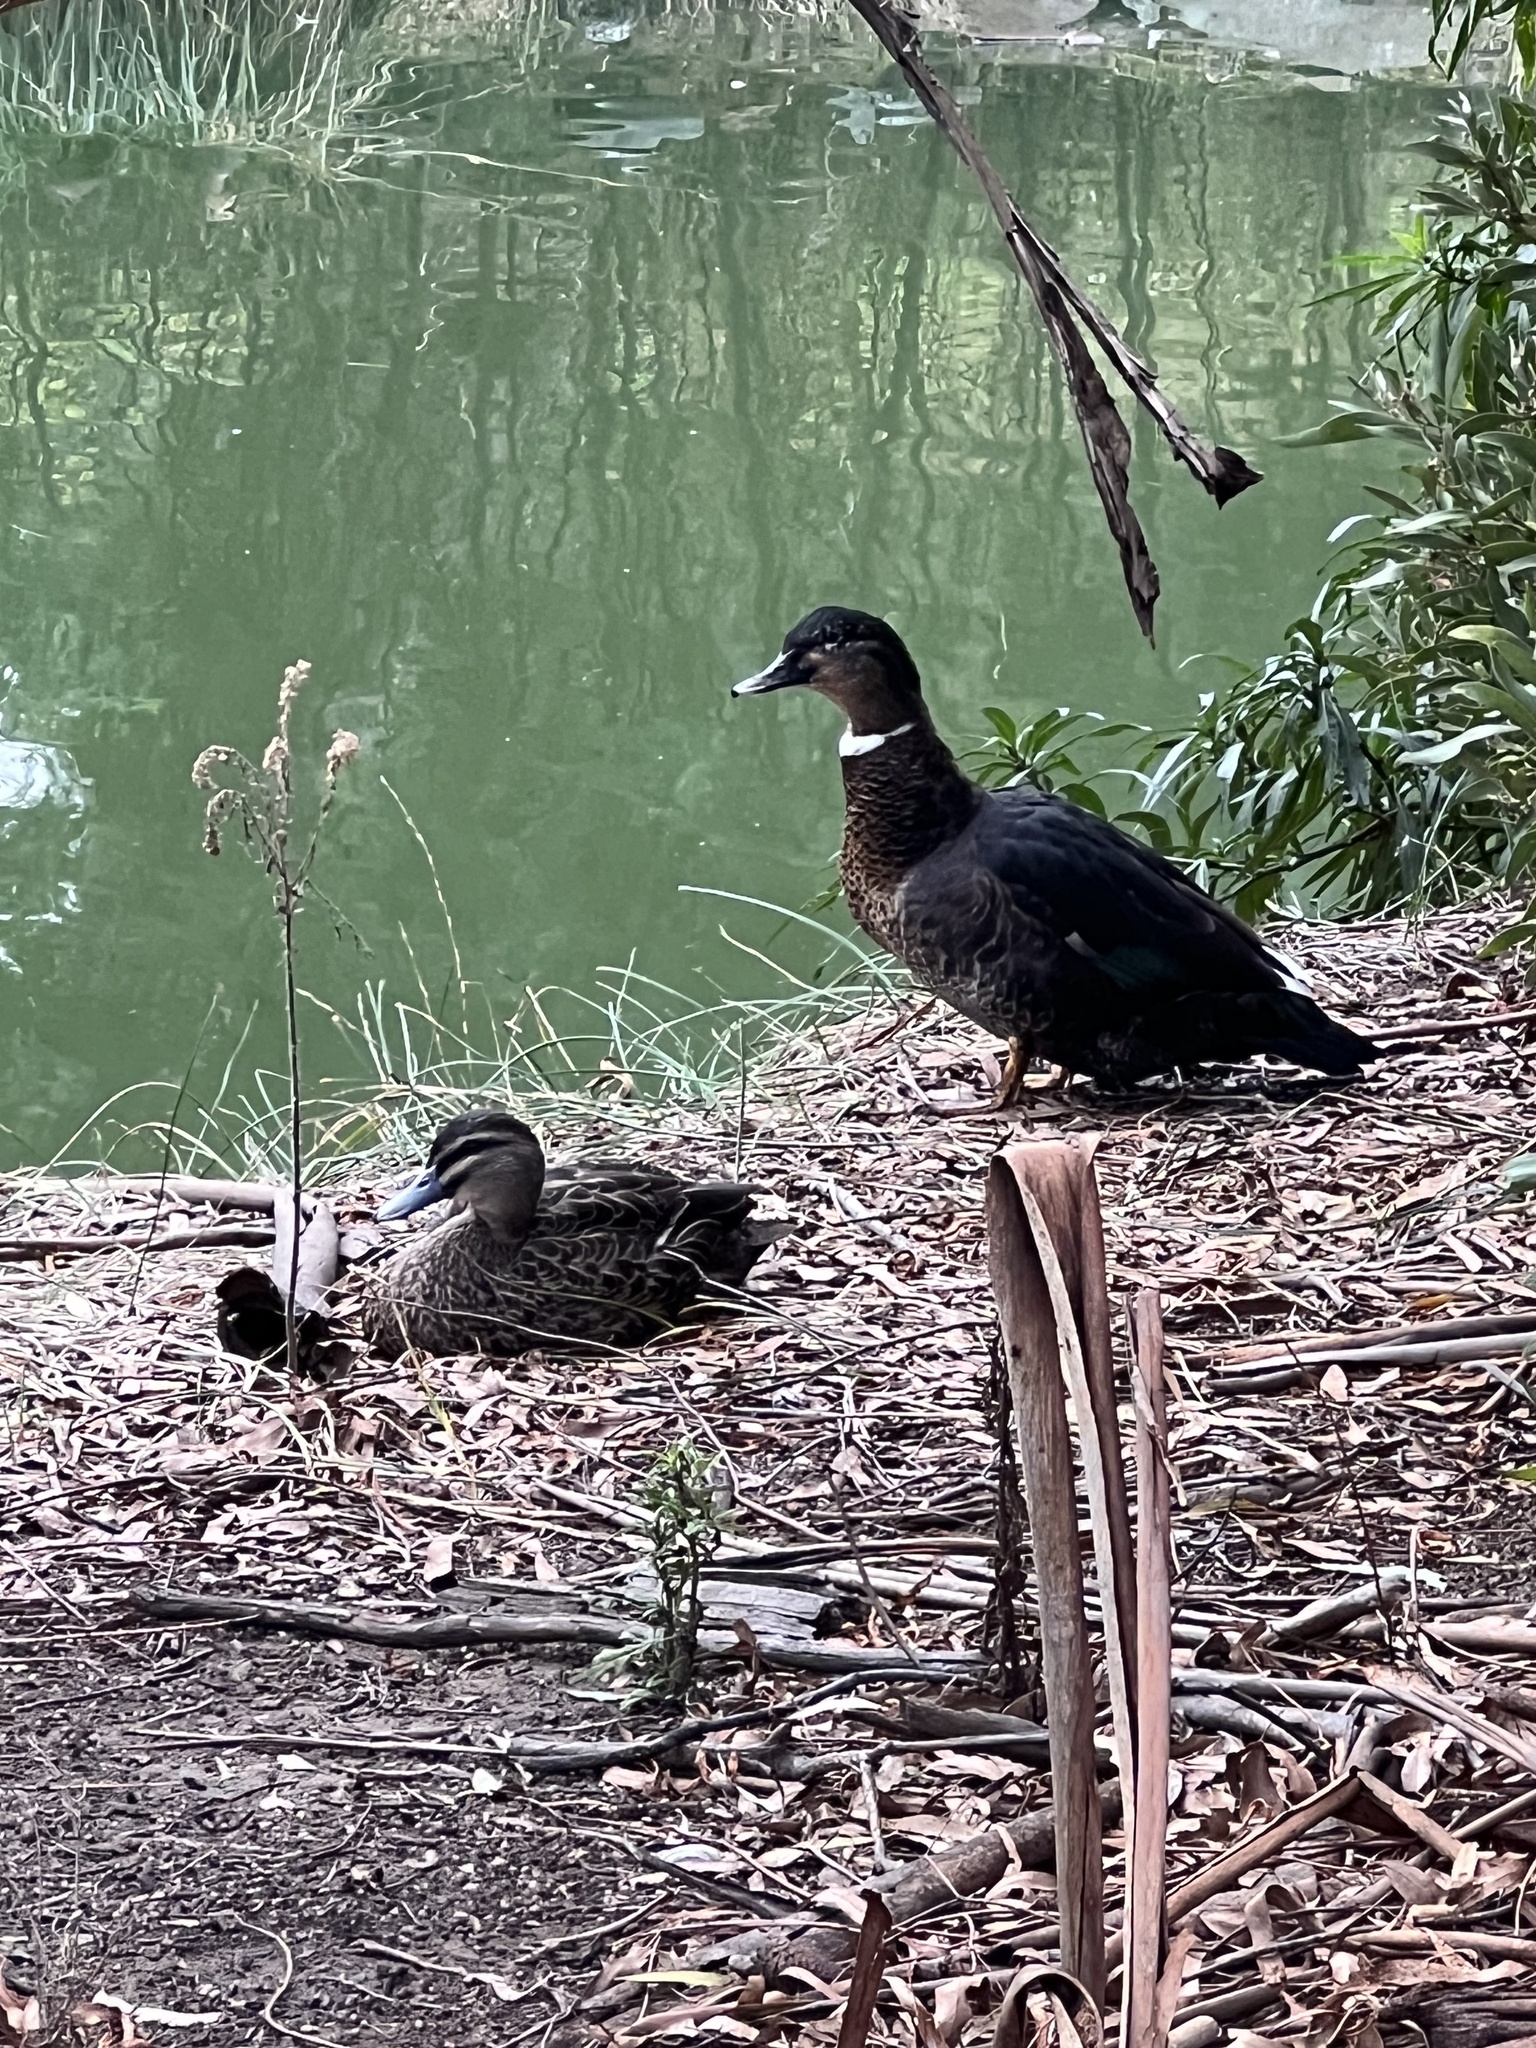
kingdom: Animalia
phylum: Chordata
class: Aves
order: Anseriformes
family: Anatidae
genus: Anas
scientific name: Anas
